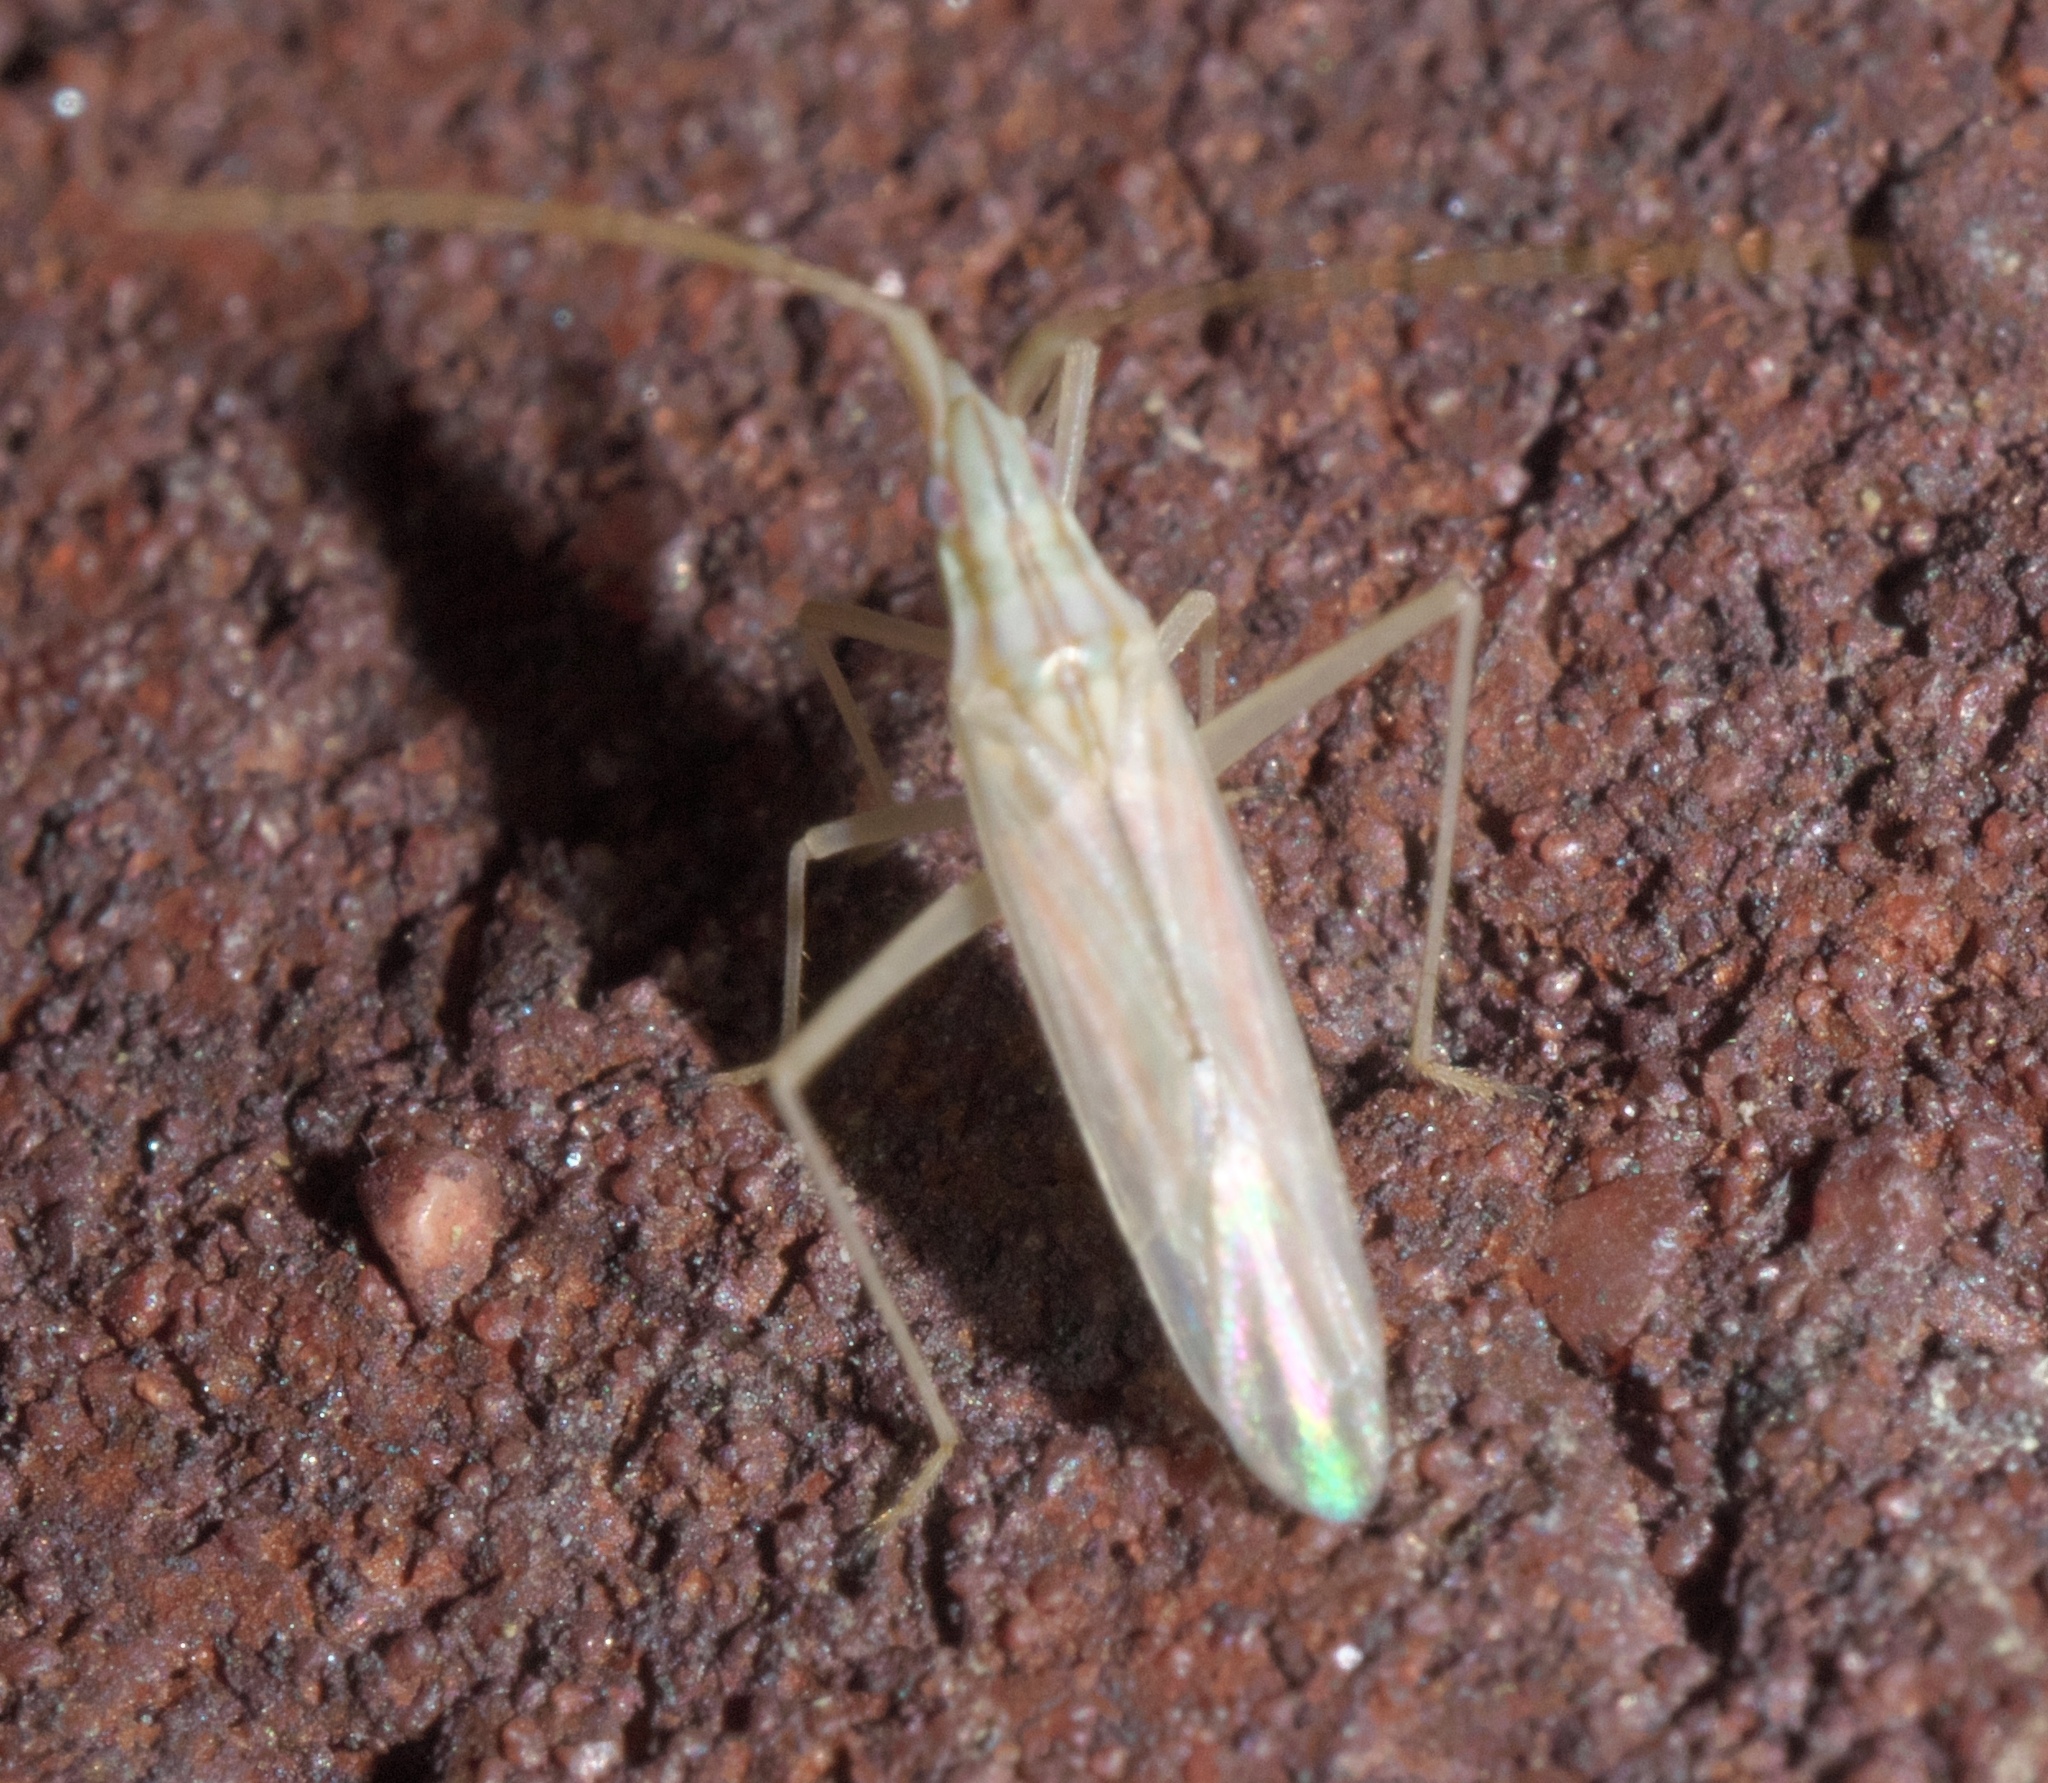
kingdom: Animalia
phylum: Arthropoda
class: Insecta
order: Hemiptera
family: Miridae
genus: Trigonotylus
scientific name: Trigonotylus pulcher
